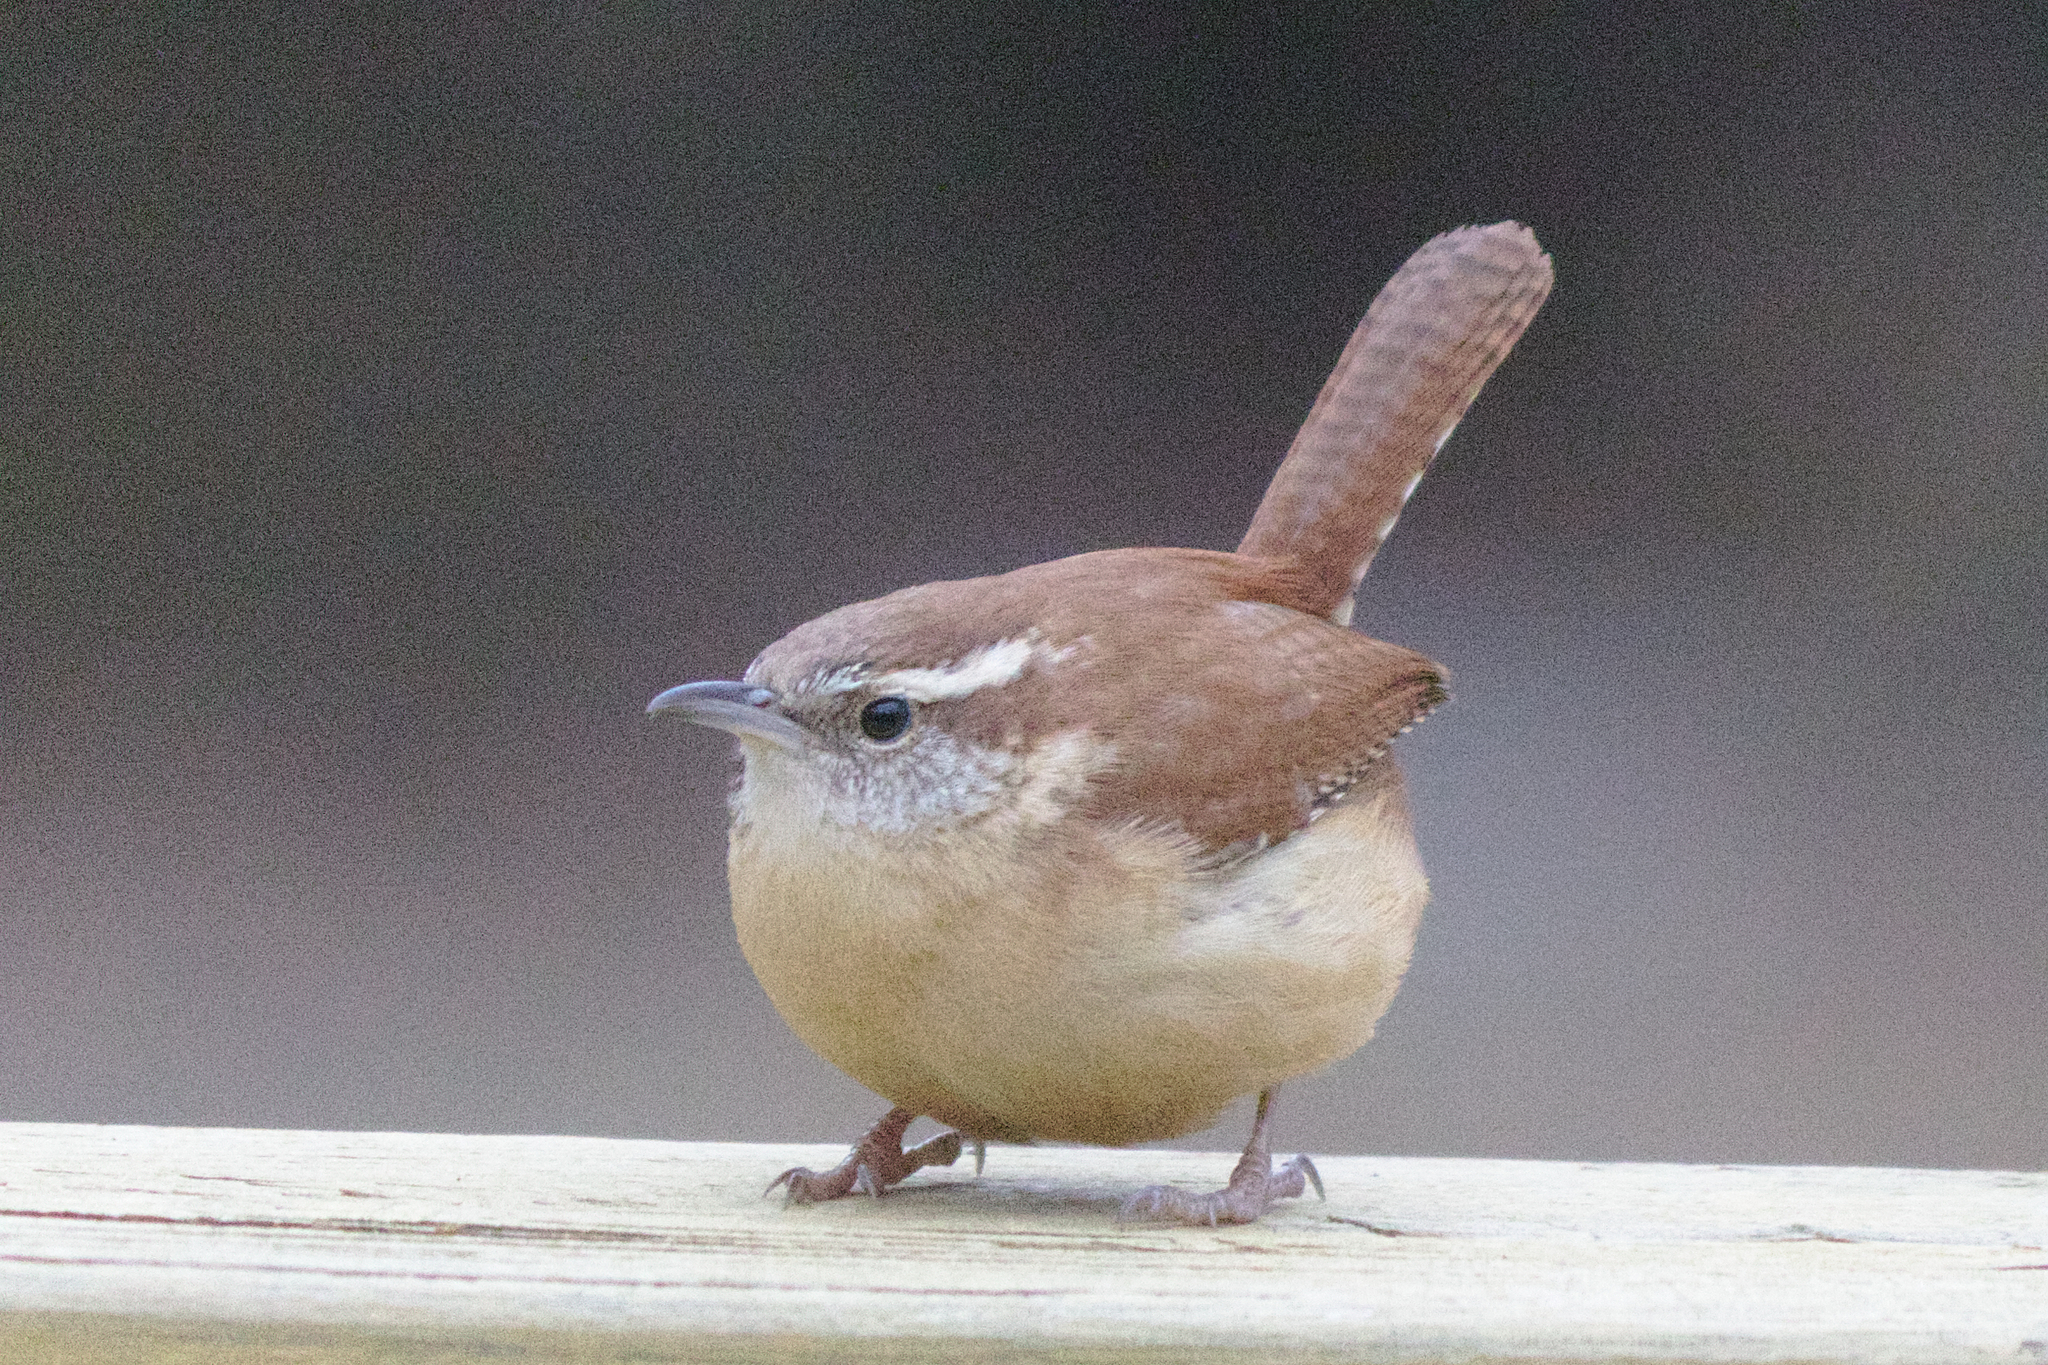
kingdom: Animalia
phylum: Chordata
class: Aves
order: Passeriformes
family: Troglodytidae
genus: Thryothorus
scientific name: Thryothorus ludovicianus
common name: Carolina wren
